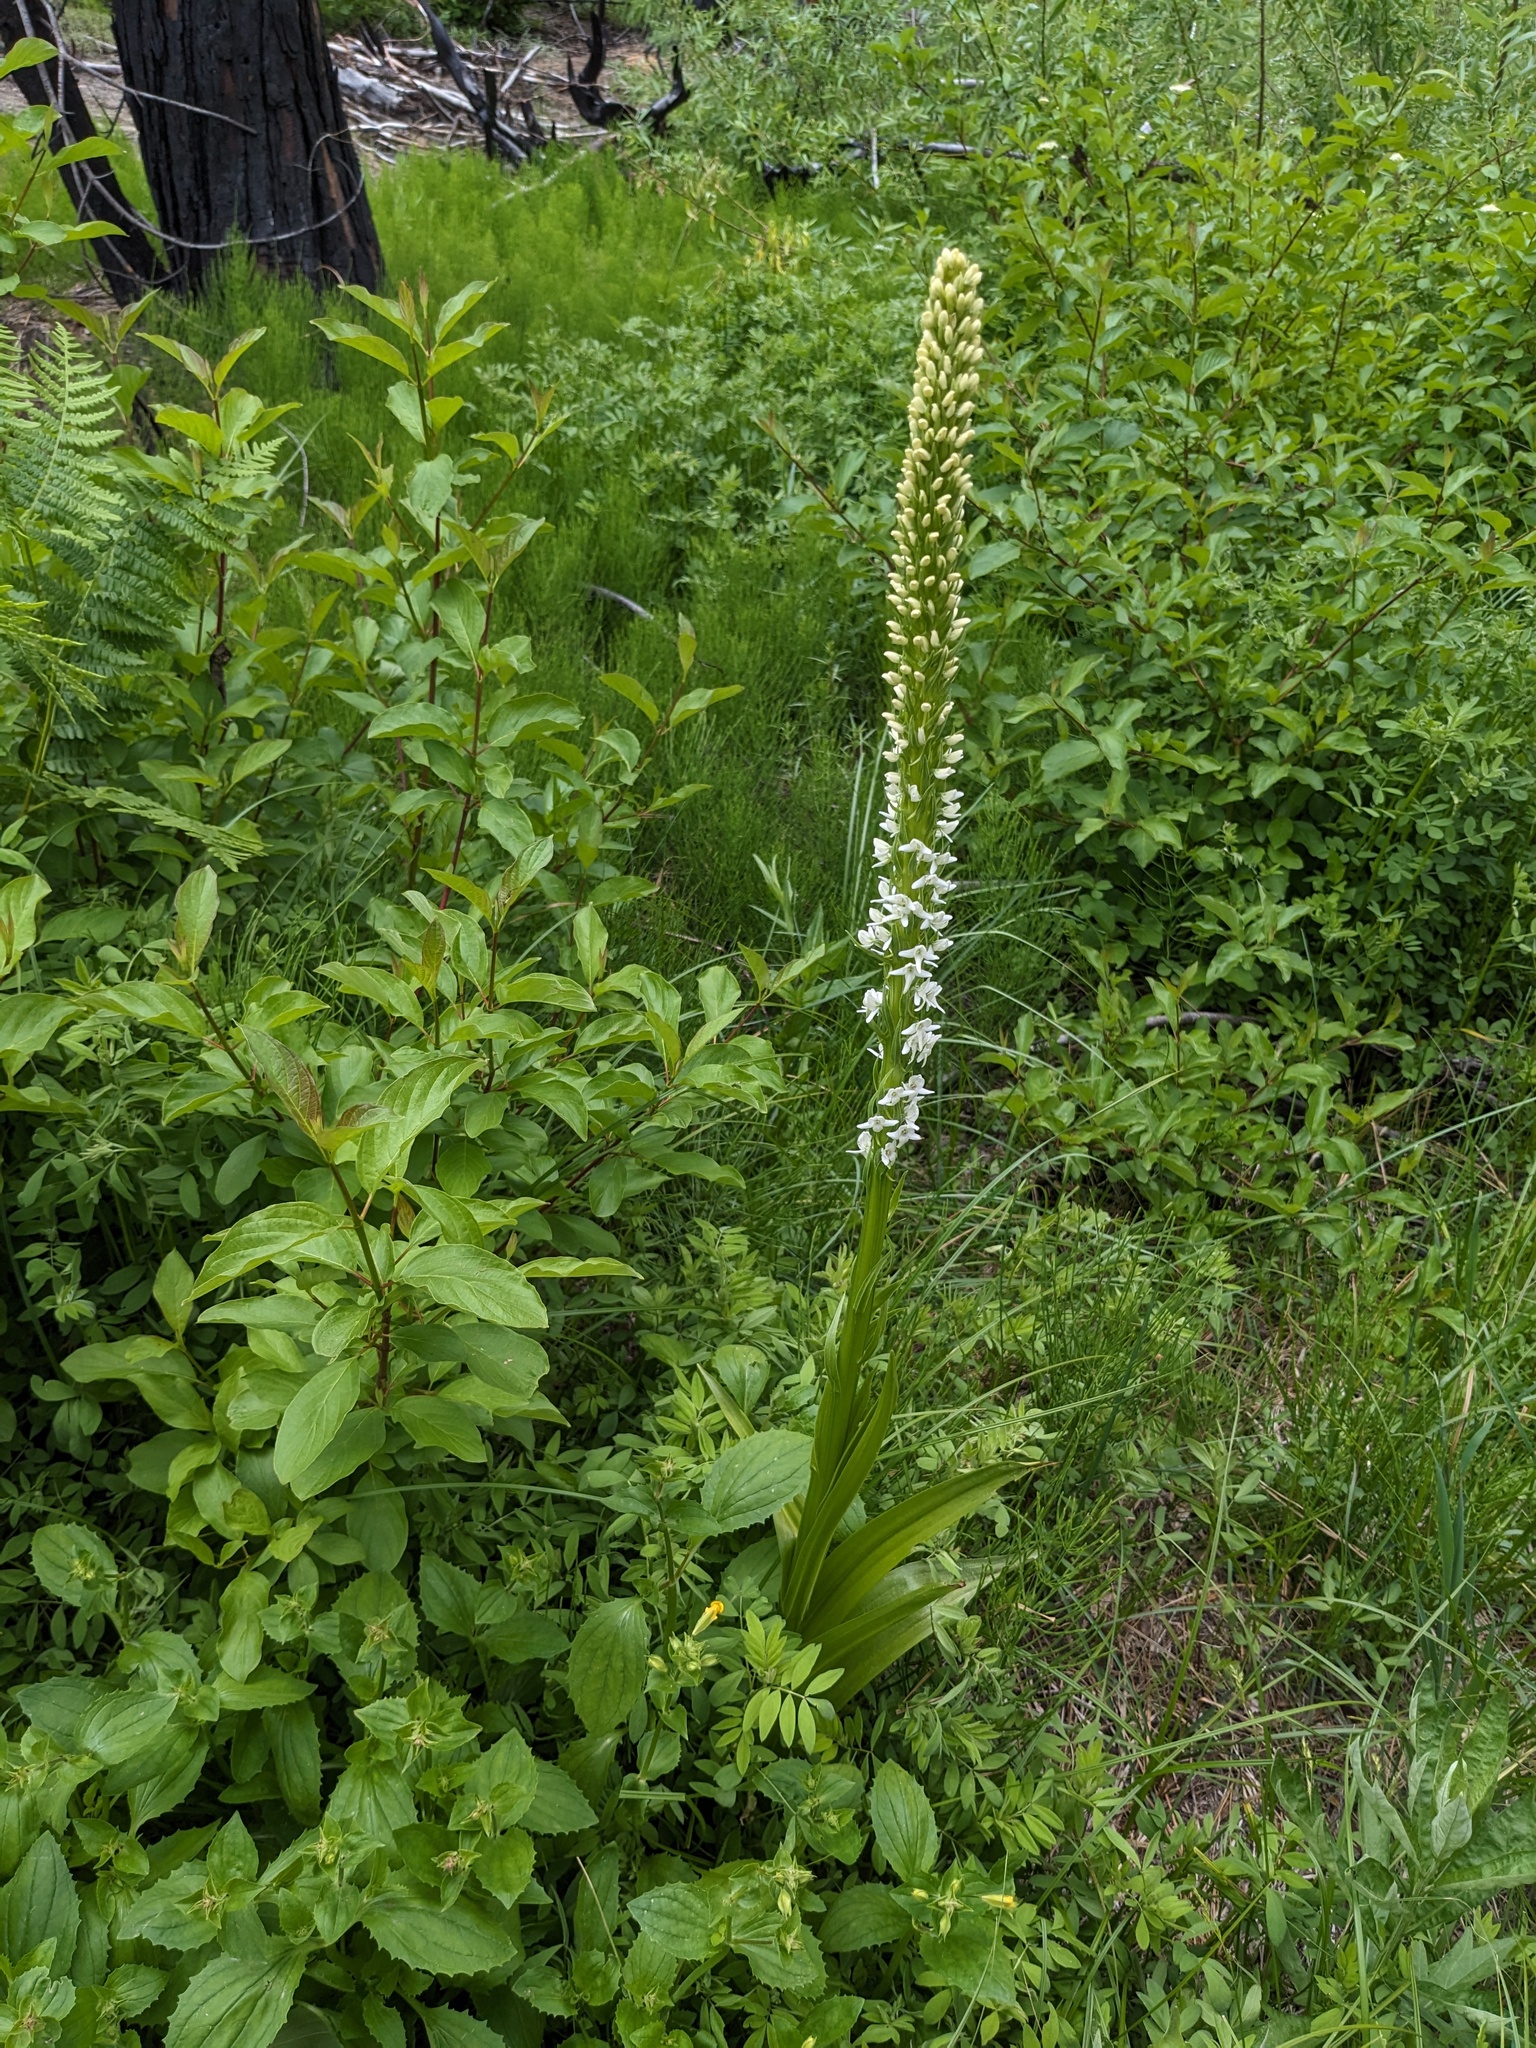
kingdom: Plantae
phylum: Tracheophyta
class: Liliopsida
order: Asparagales
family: Orchidaceae
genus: Platanthera
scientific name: Platanthera dilatata
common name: Bog candles
